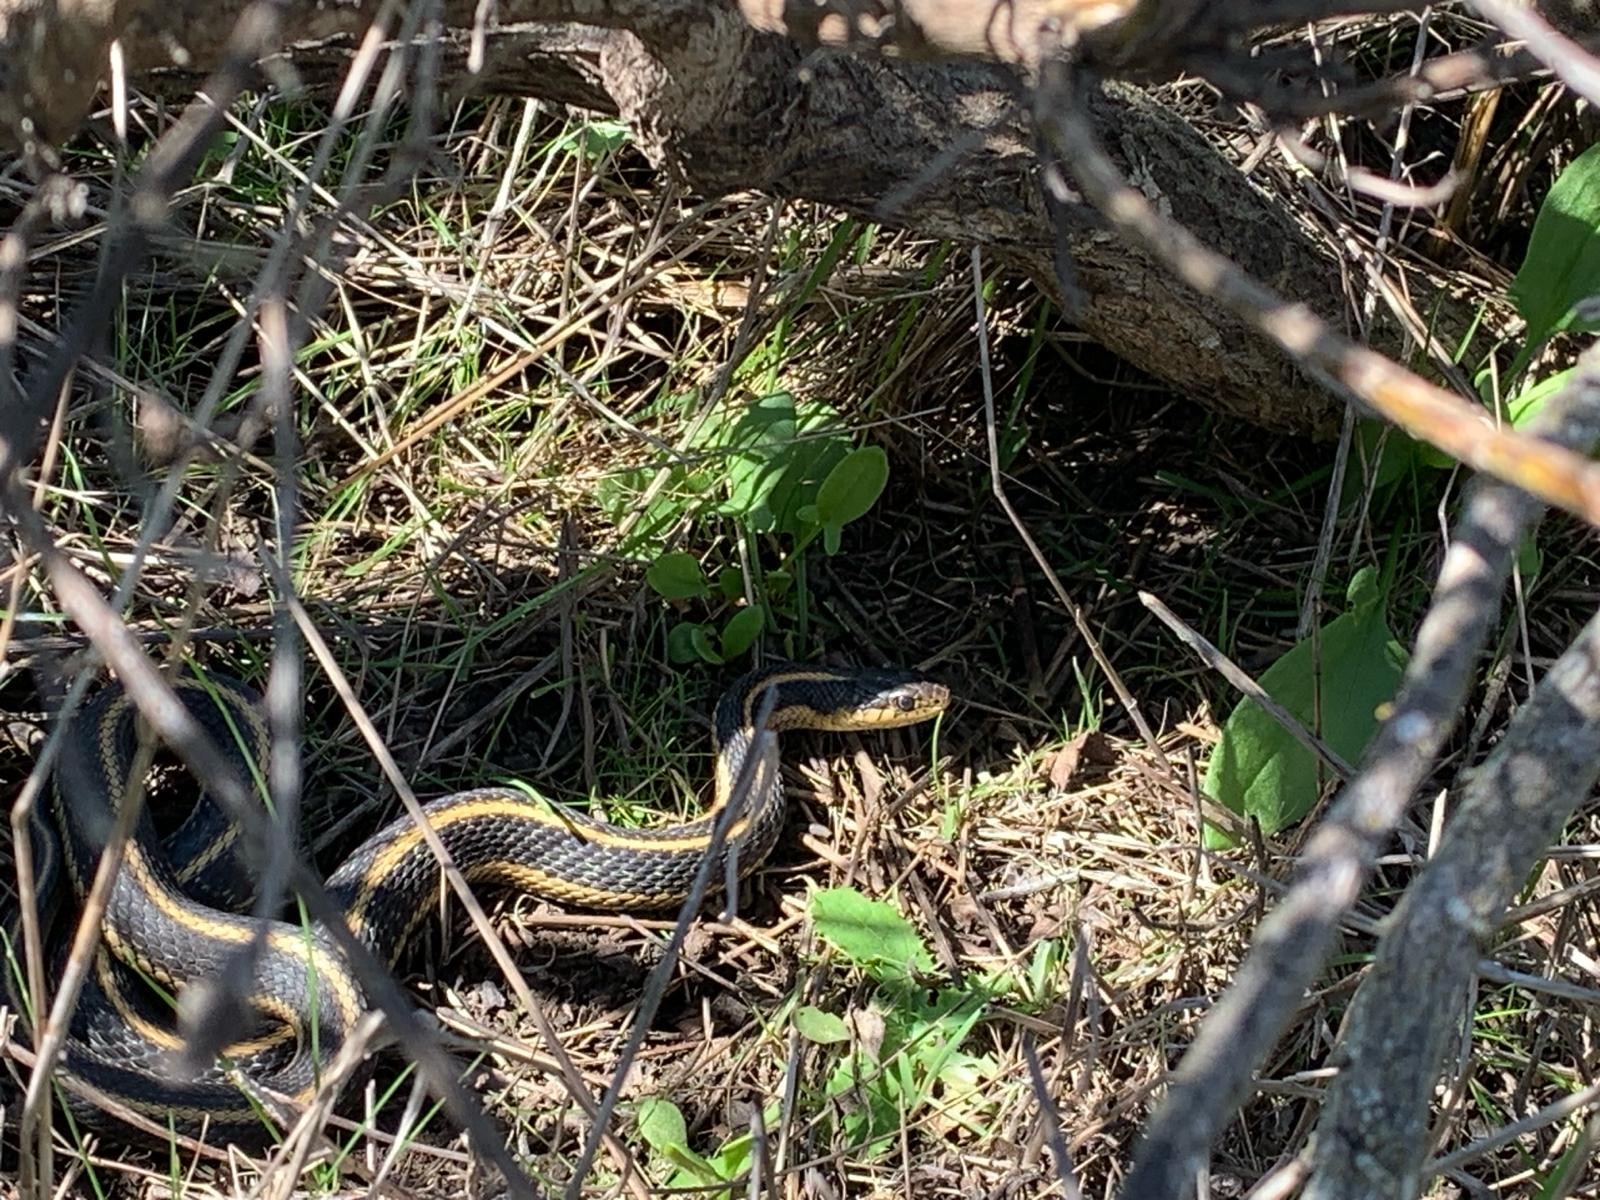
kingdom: Animalia
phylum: Chordata
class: Squamata
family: Colubridae
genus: Thamnophis
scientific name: Thamnophis elegans
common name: Western terrestrial garter snake
